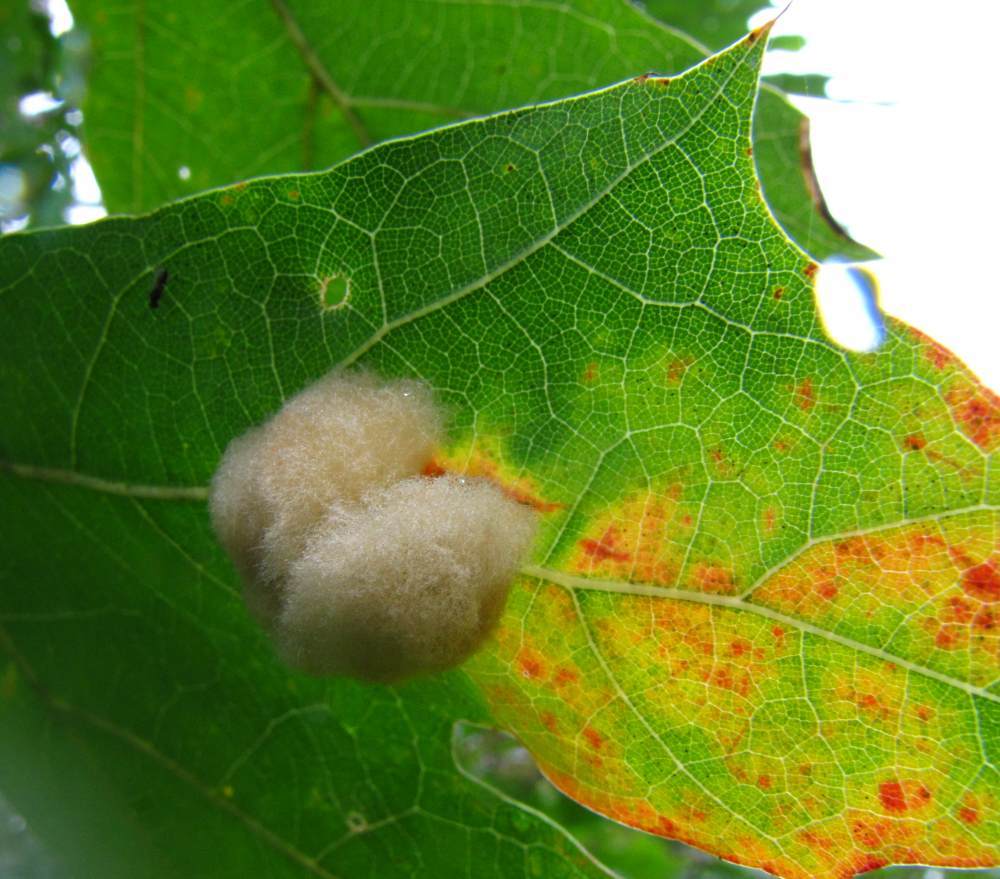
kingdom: Animalia
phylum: Arthropoda
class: Insecta
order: Hymenoptera
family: Cynipidae
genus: Callirhytis
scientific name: Callirhytis
